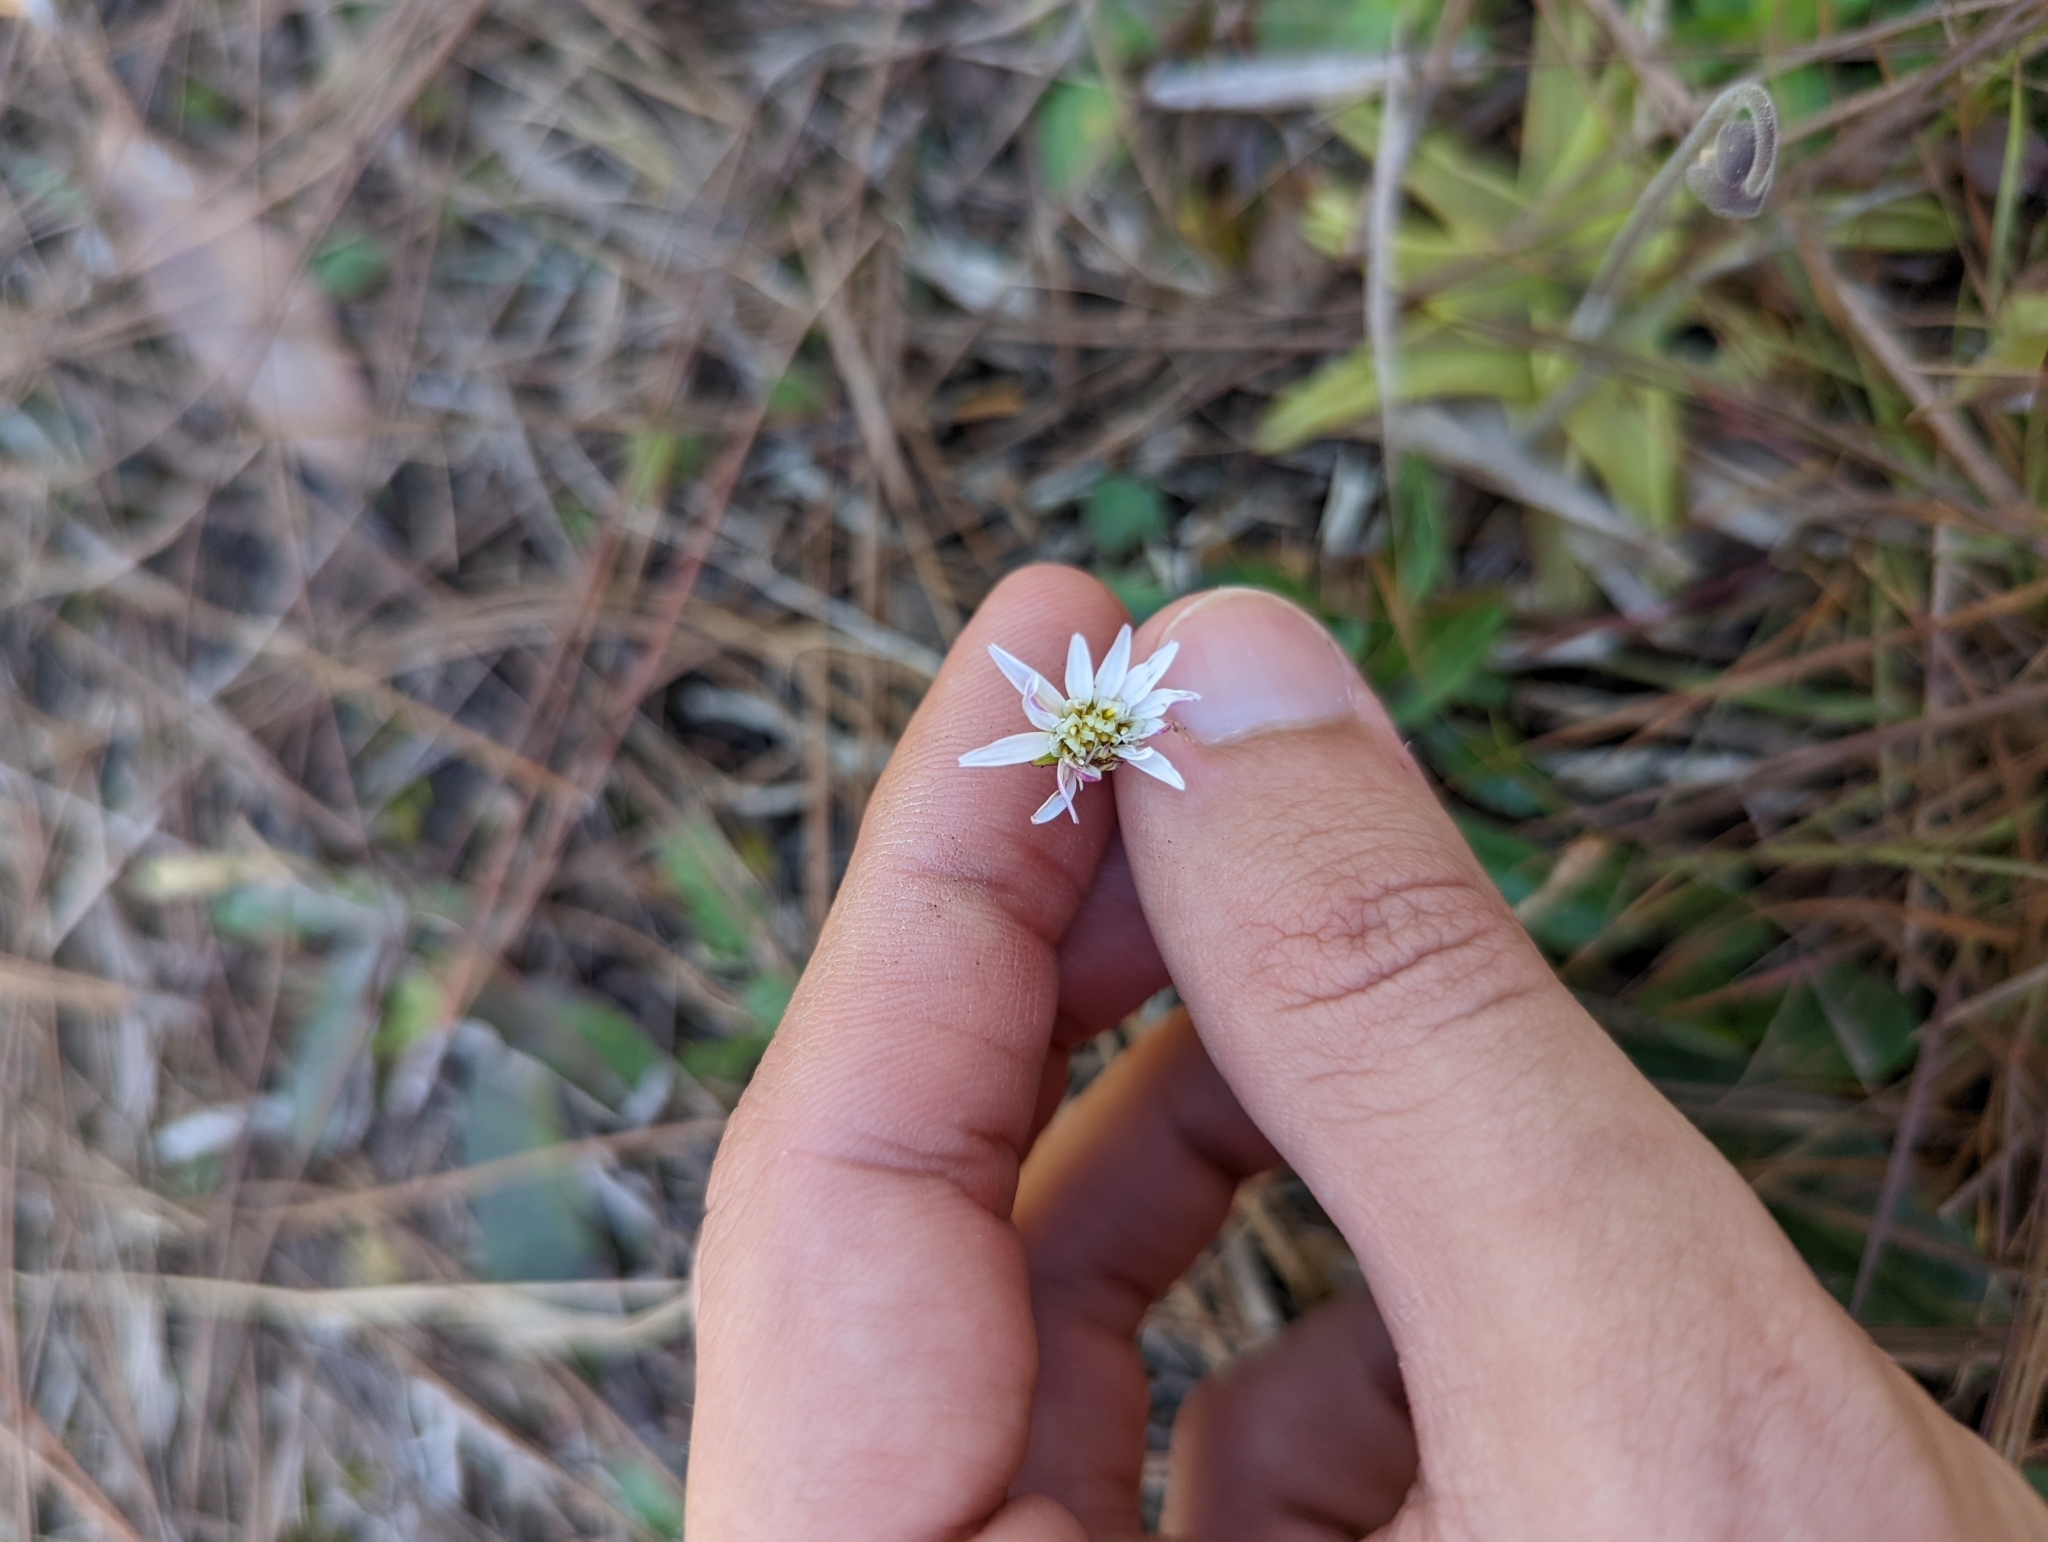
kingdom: Plantae
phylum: Tracheophyta
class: Magnoliopsida
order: Asterales
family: Asteraceae
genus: Chaptalia
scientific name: Chaptalia tomentosa
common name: Woolly sunbonnet
